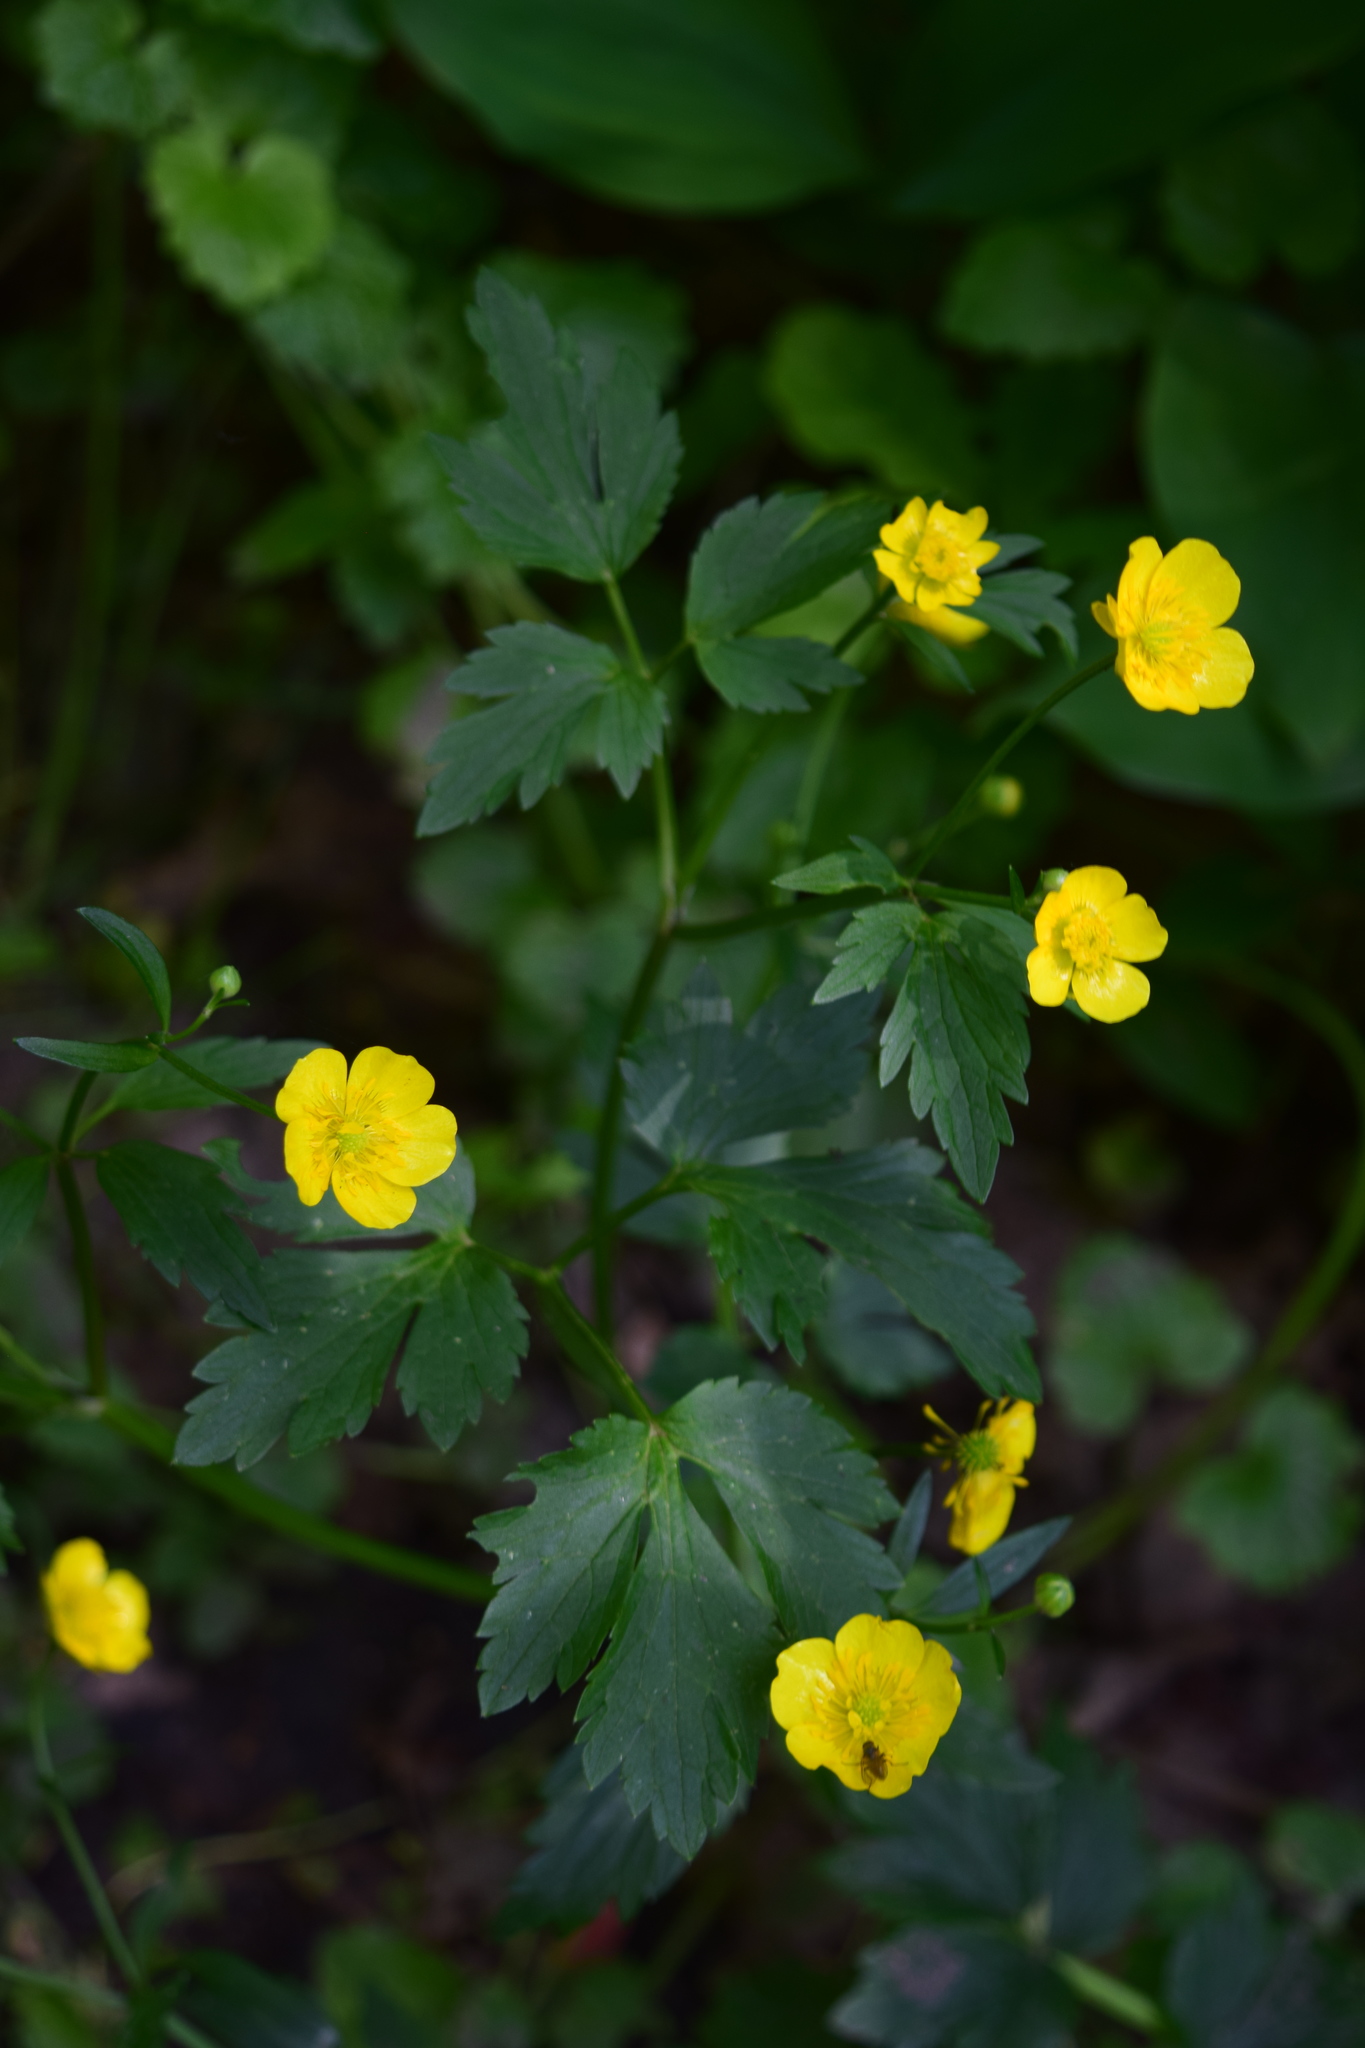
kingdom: Plantae
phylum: Tracheophyta
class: Magnoliopsida
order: Ranunculales
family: Ranunculaceae
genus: Ranunculus
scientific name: Ranunculus repens
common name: Creeping buttercup
